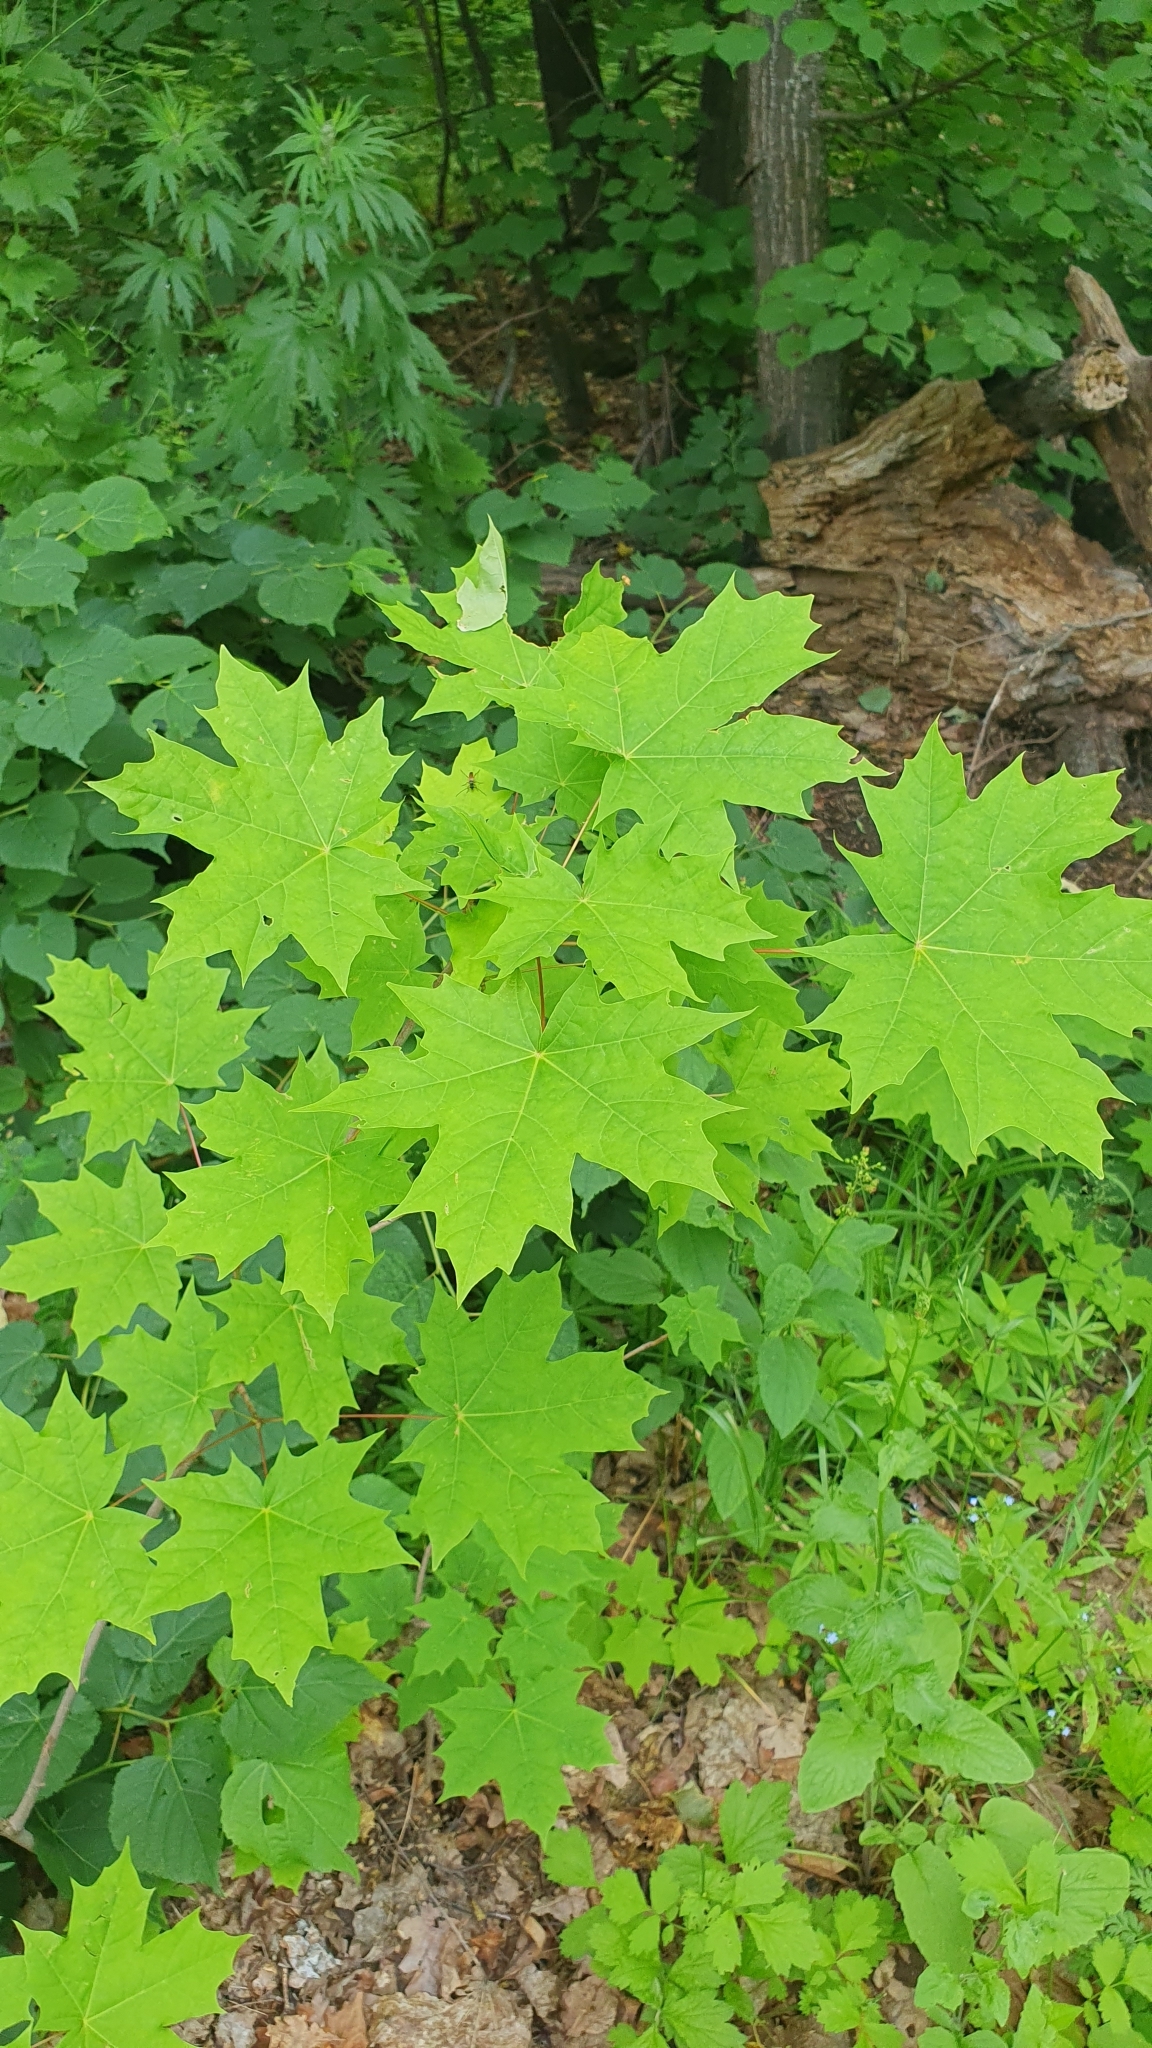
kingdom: Plantae
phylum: Tracheophyta
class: Magnoliopsida
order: Sapindales
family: Sapindaceae
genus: Acer
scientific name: Acer platanoides
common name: Norway maple
